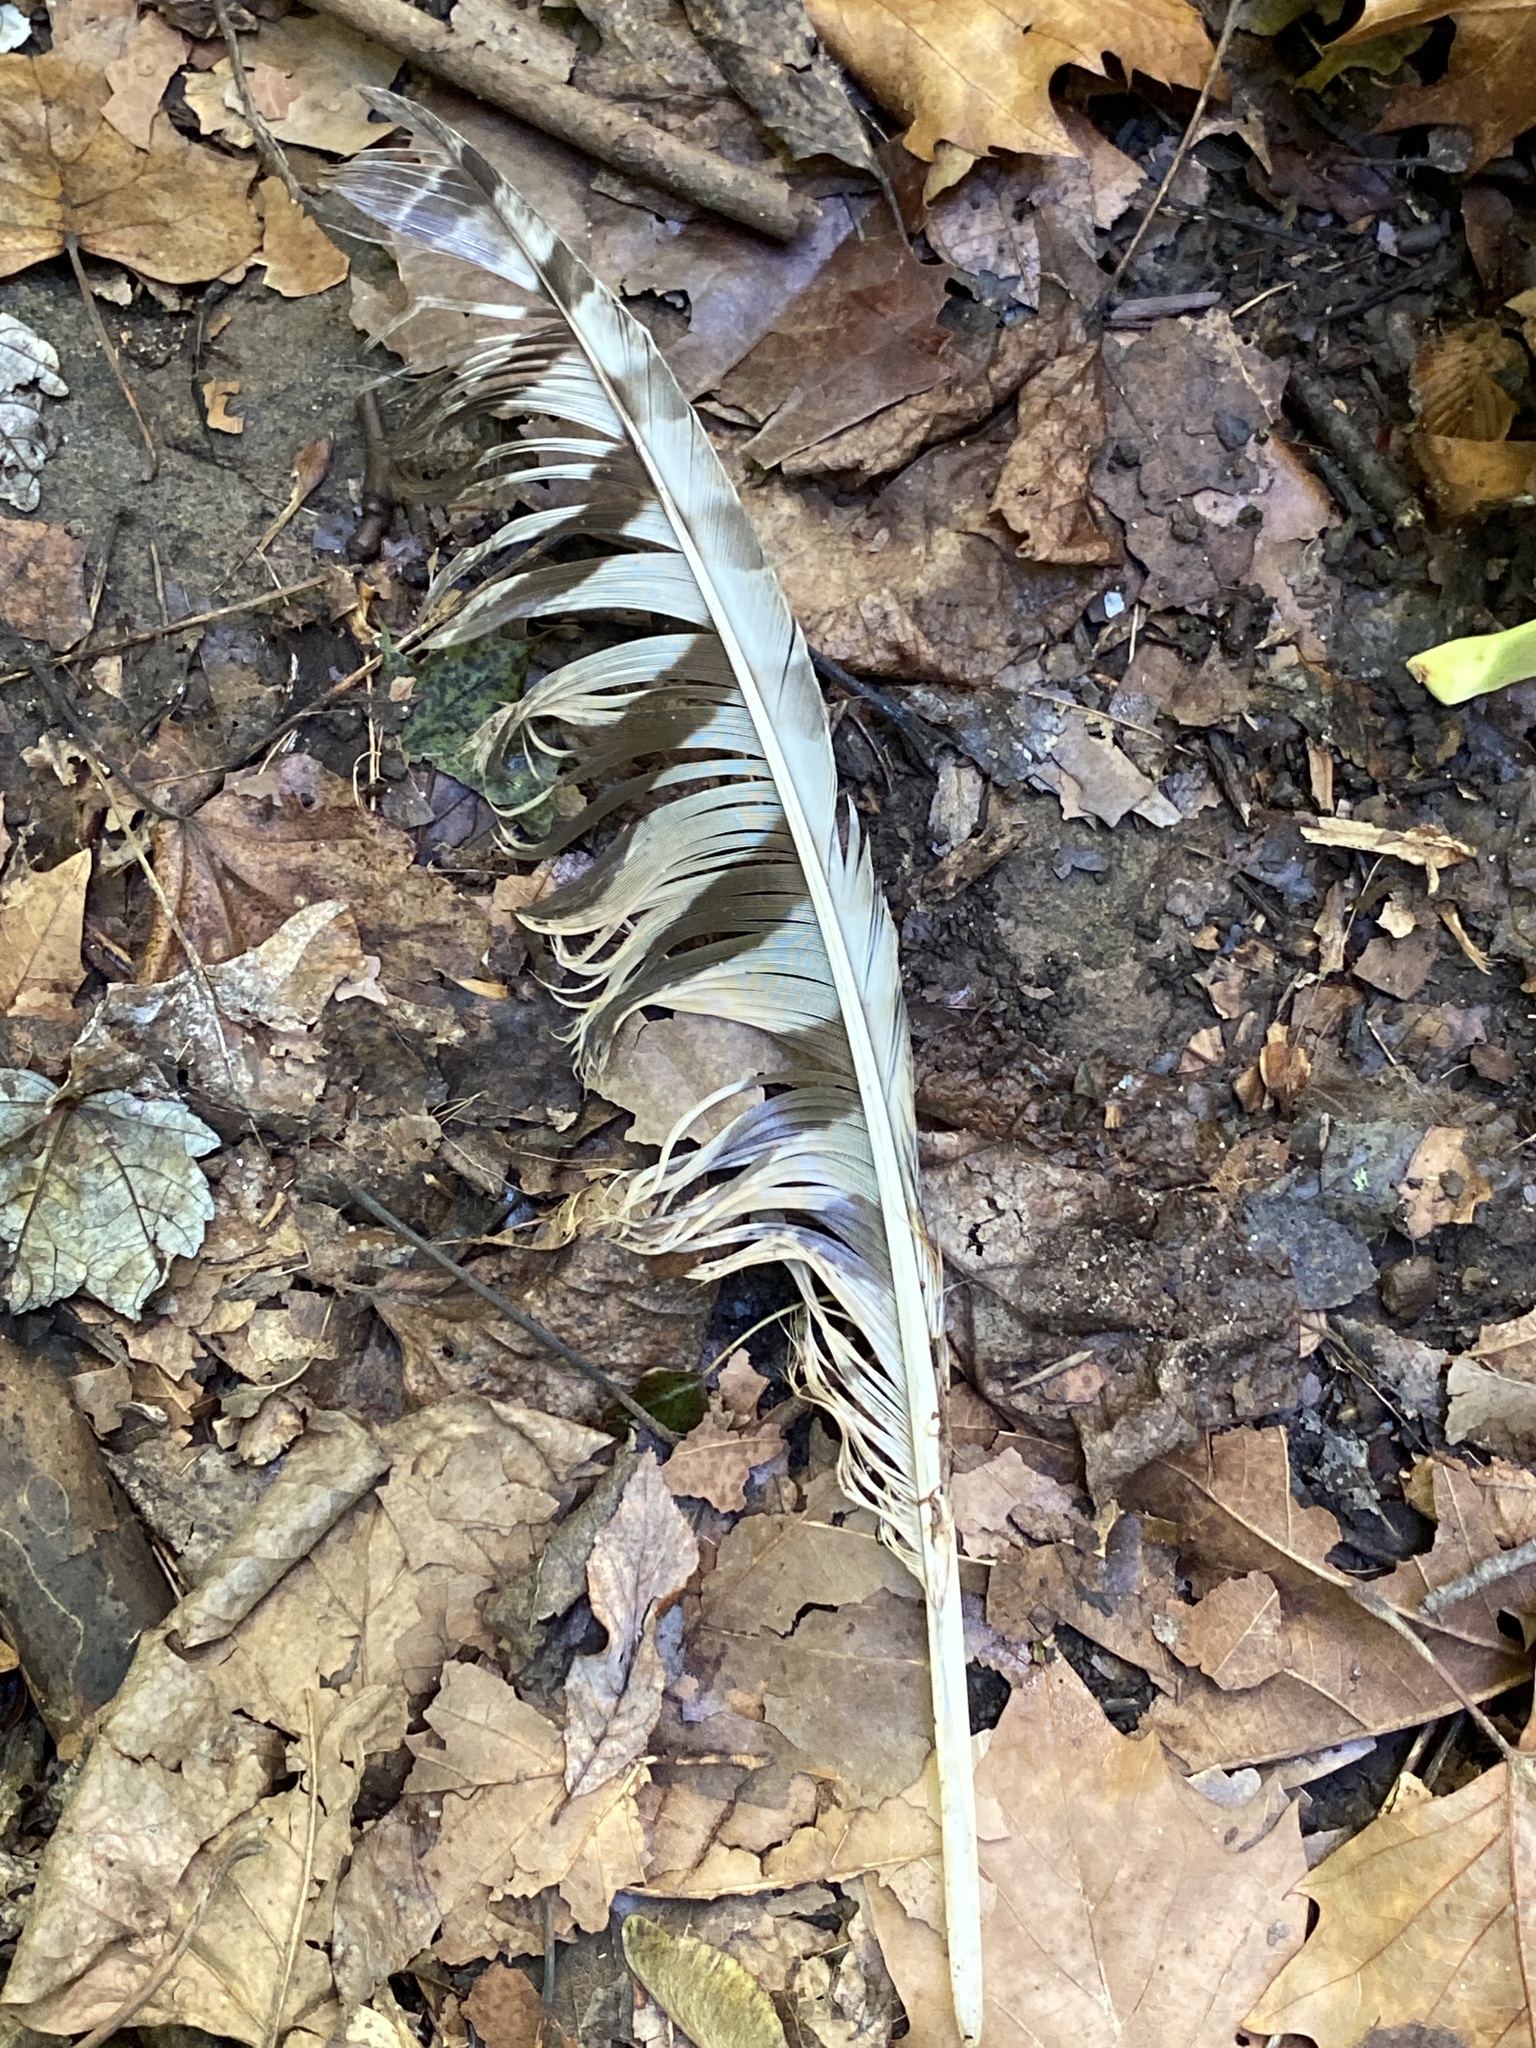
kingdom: Animalia
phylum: Chordata
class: Aves
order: Strigiformes
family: Strigidae
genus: Bubo
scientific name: Bubo virginianus
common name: Great horned owl
